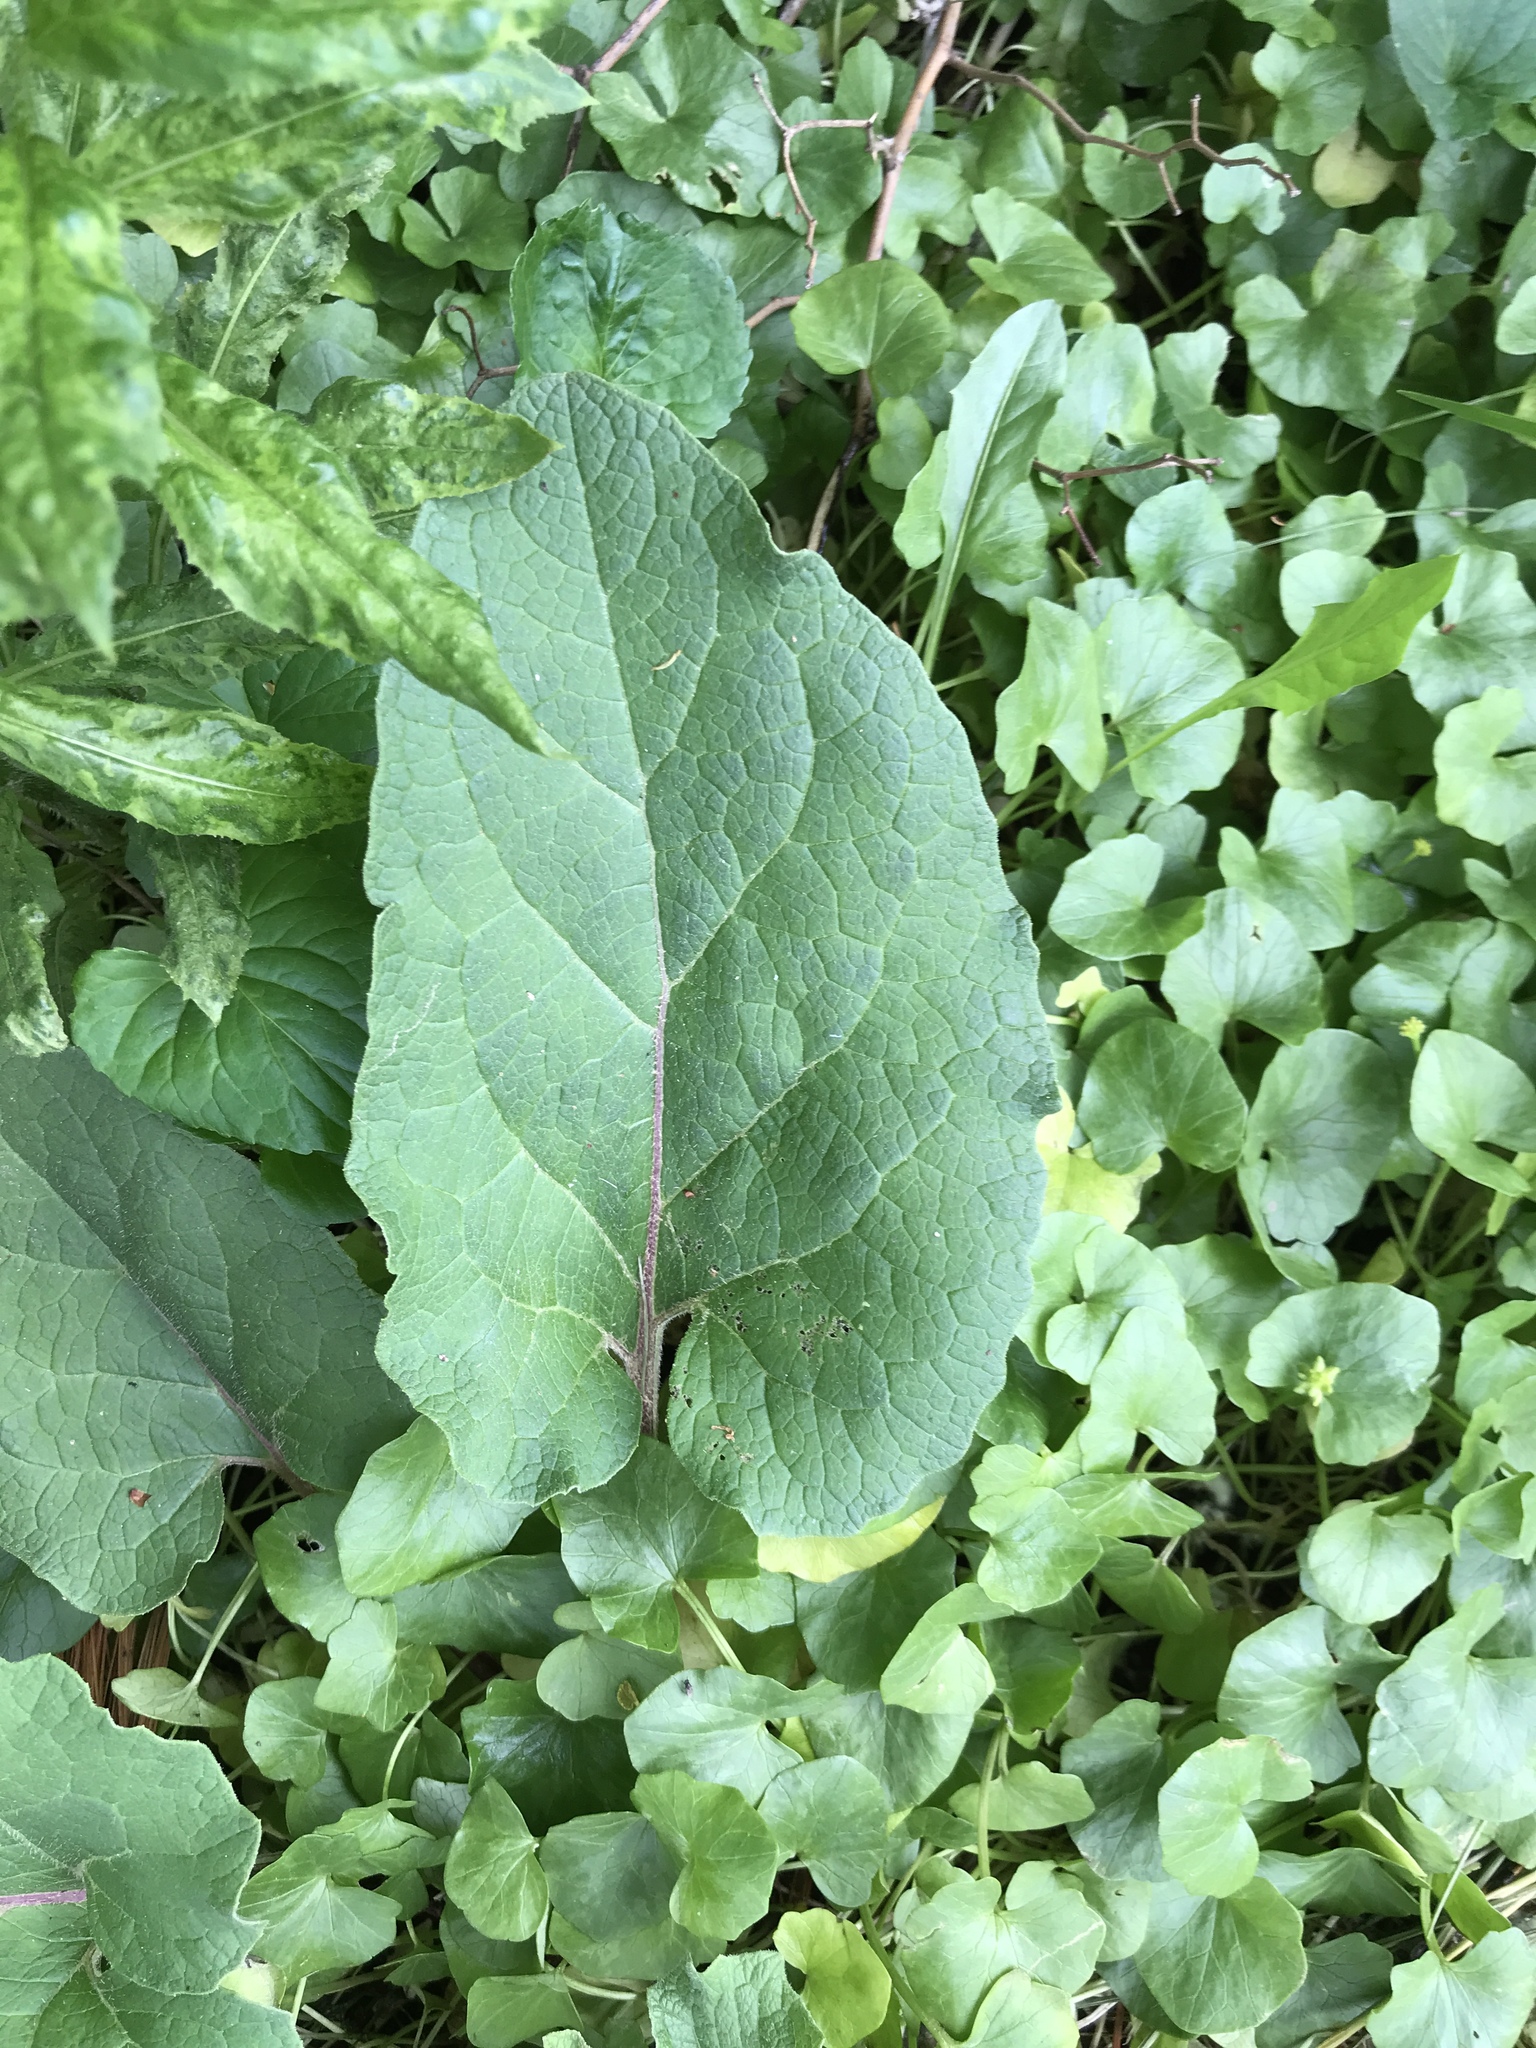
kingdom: Plantae
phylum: Tracheophyta
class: Magnoliopsida
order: Asterales
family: Asteraceae
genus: Arctium
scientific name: Arctium
